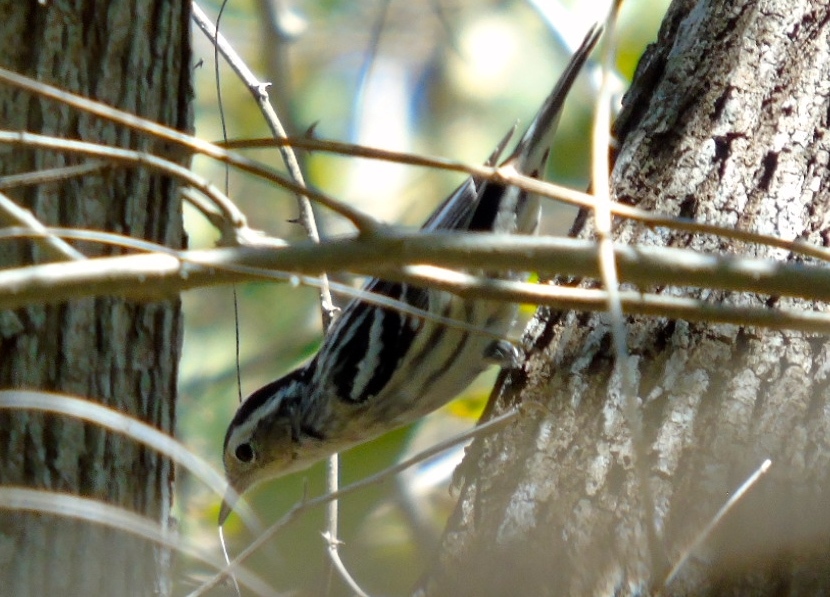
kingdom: Animalia
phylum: Chordata
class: Aves
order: Passeriformes
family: Parulidae
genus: Mniotilta
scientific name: Mniotilta varia
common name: Black-and-white warbler
